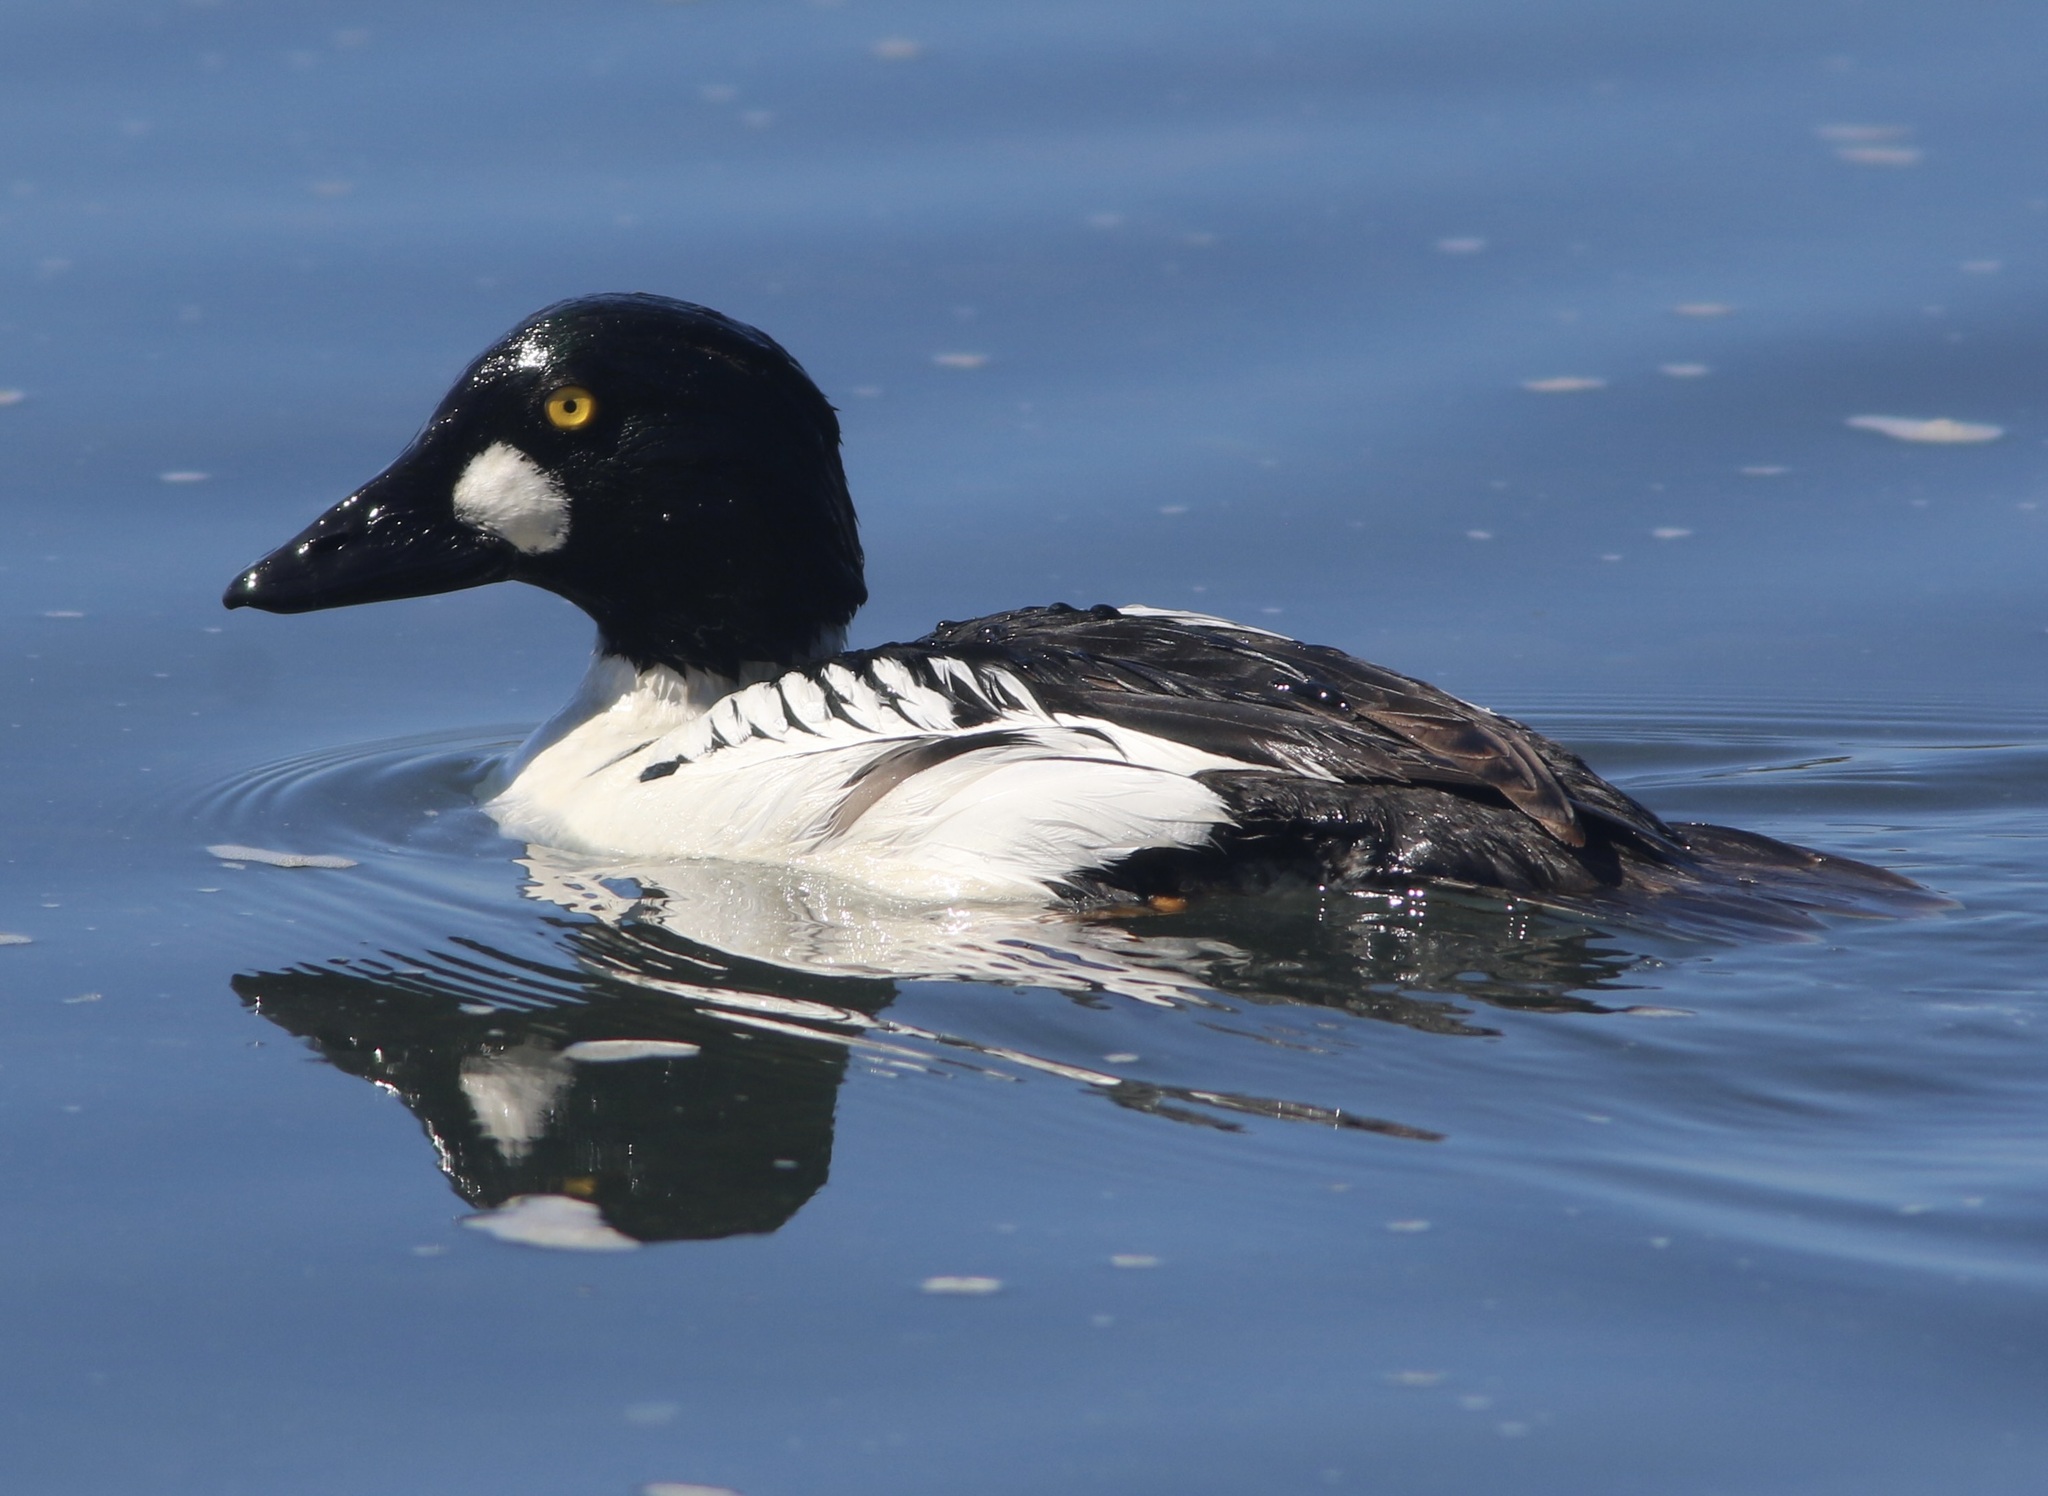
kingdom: Animalia
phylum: Chordata
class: Aves
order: Anseriformes
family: Anatidae
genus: Bucephala
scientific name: Bucephala clangula
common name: Common goldeneye
